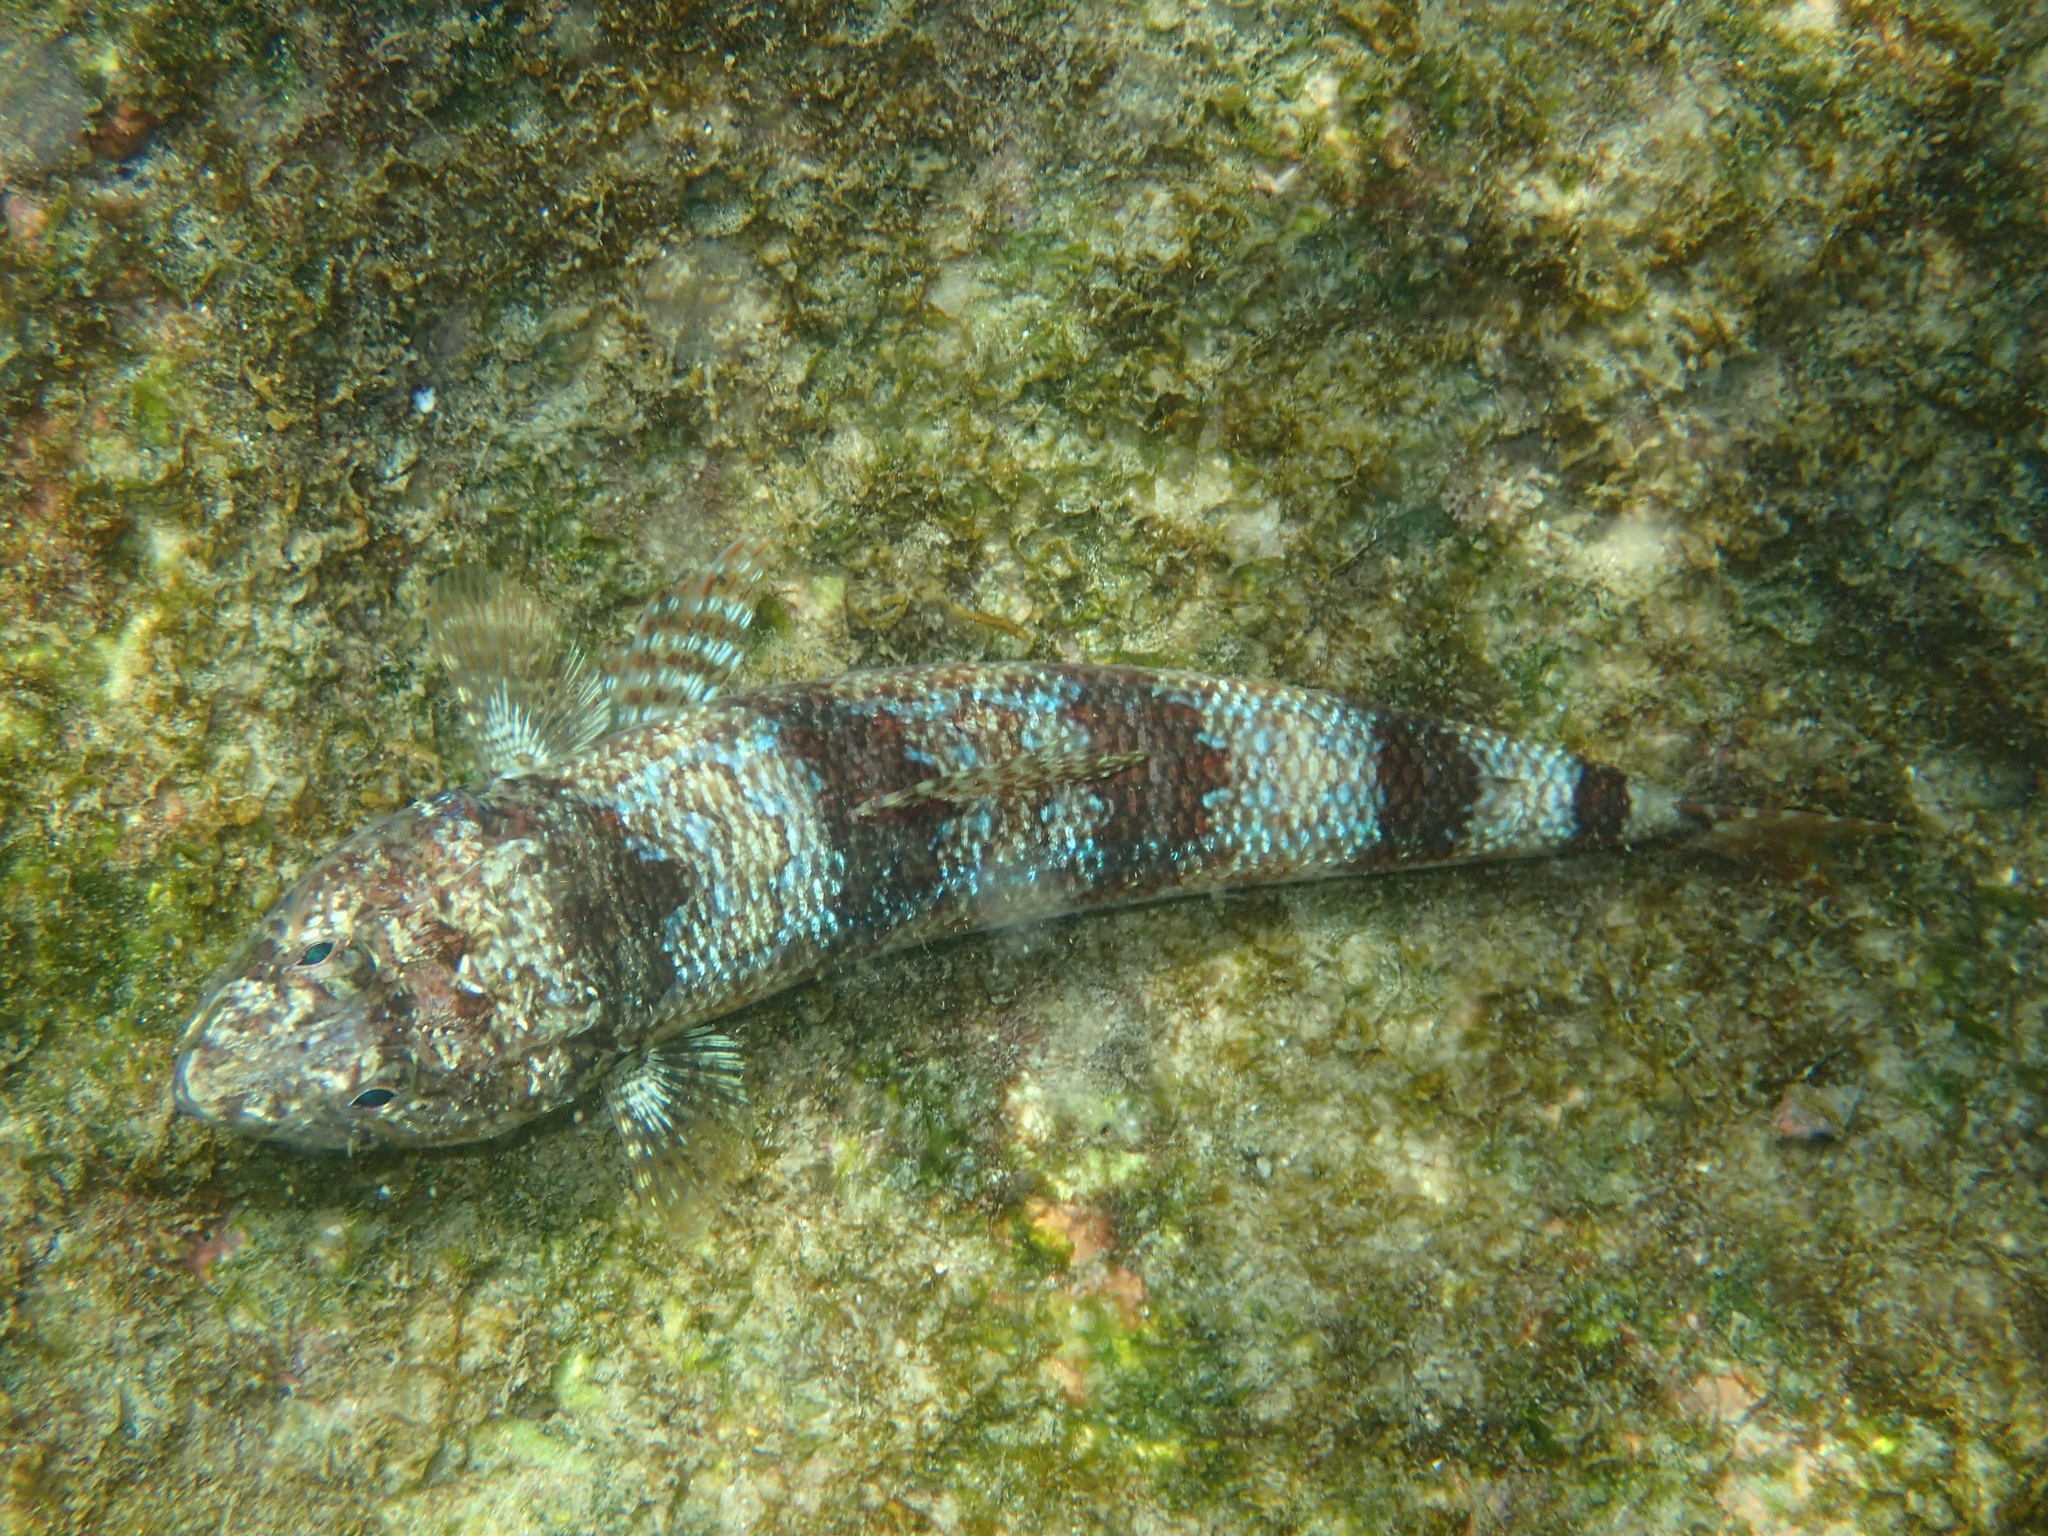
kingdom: Animalia
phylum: Chordata
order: Aulopiformes
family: Synodontidae
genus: Synodus
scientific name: Synodus lacertinus
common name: Calico lizardfish
